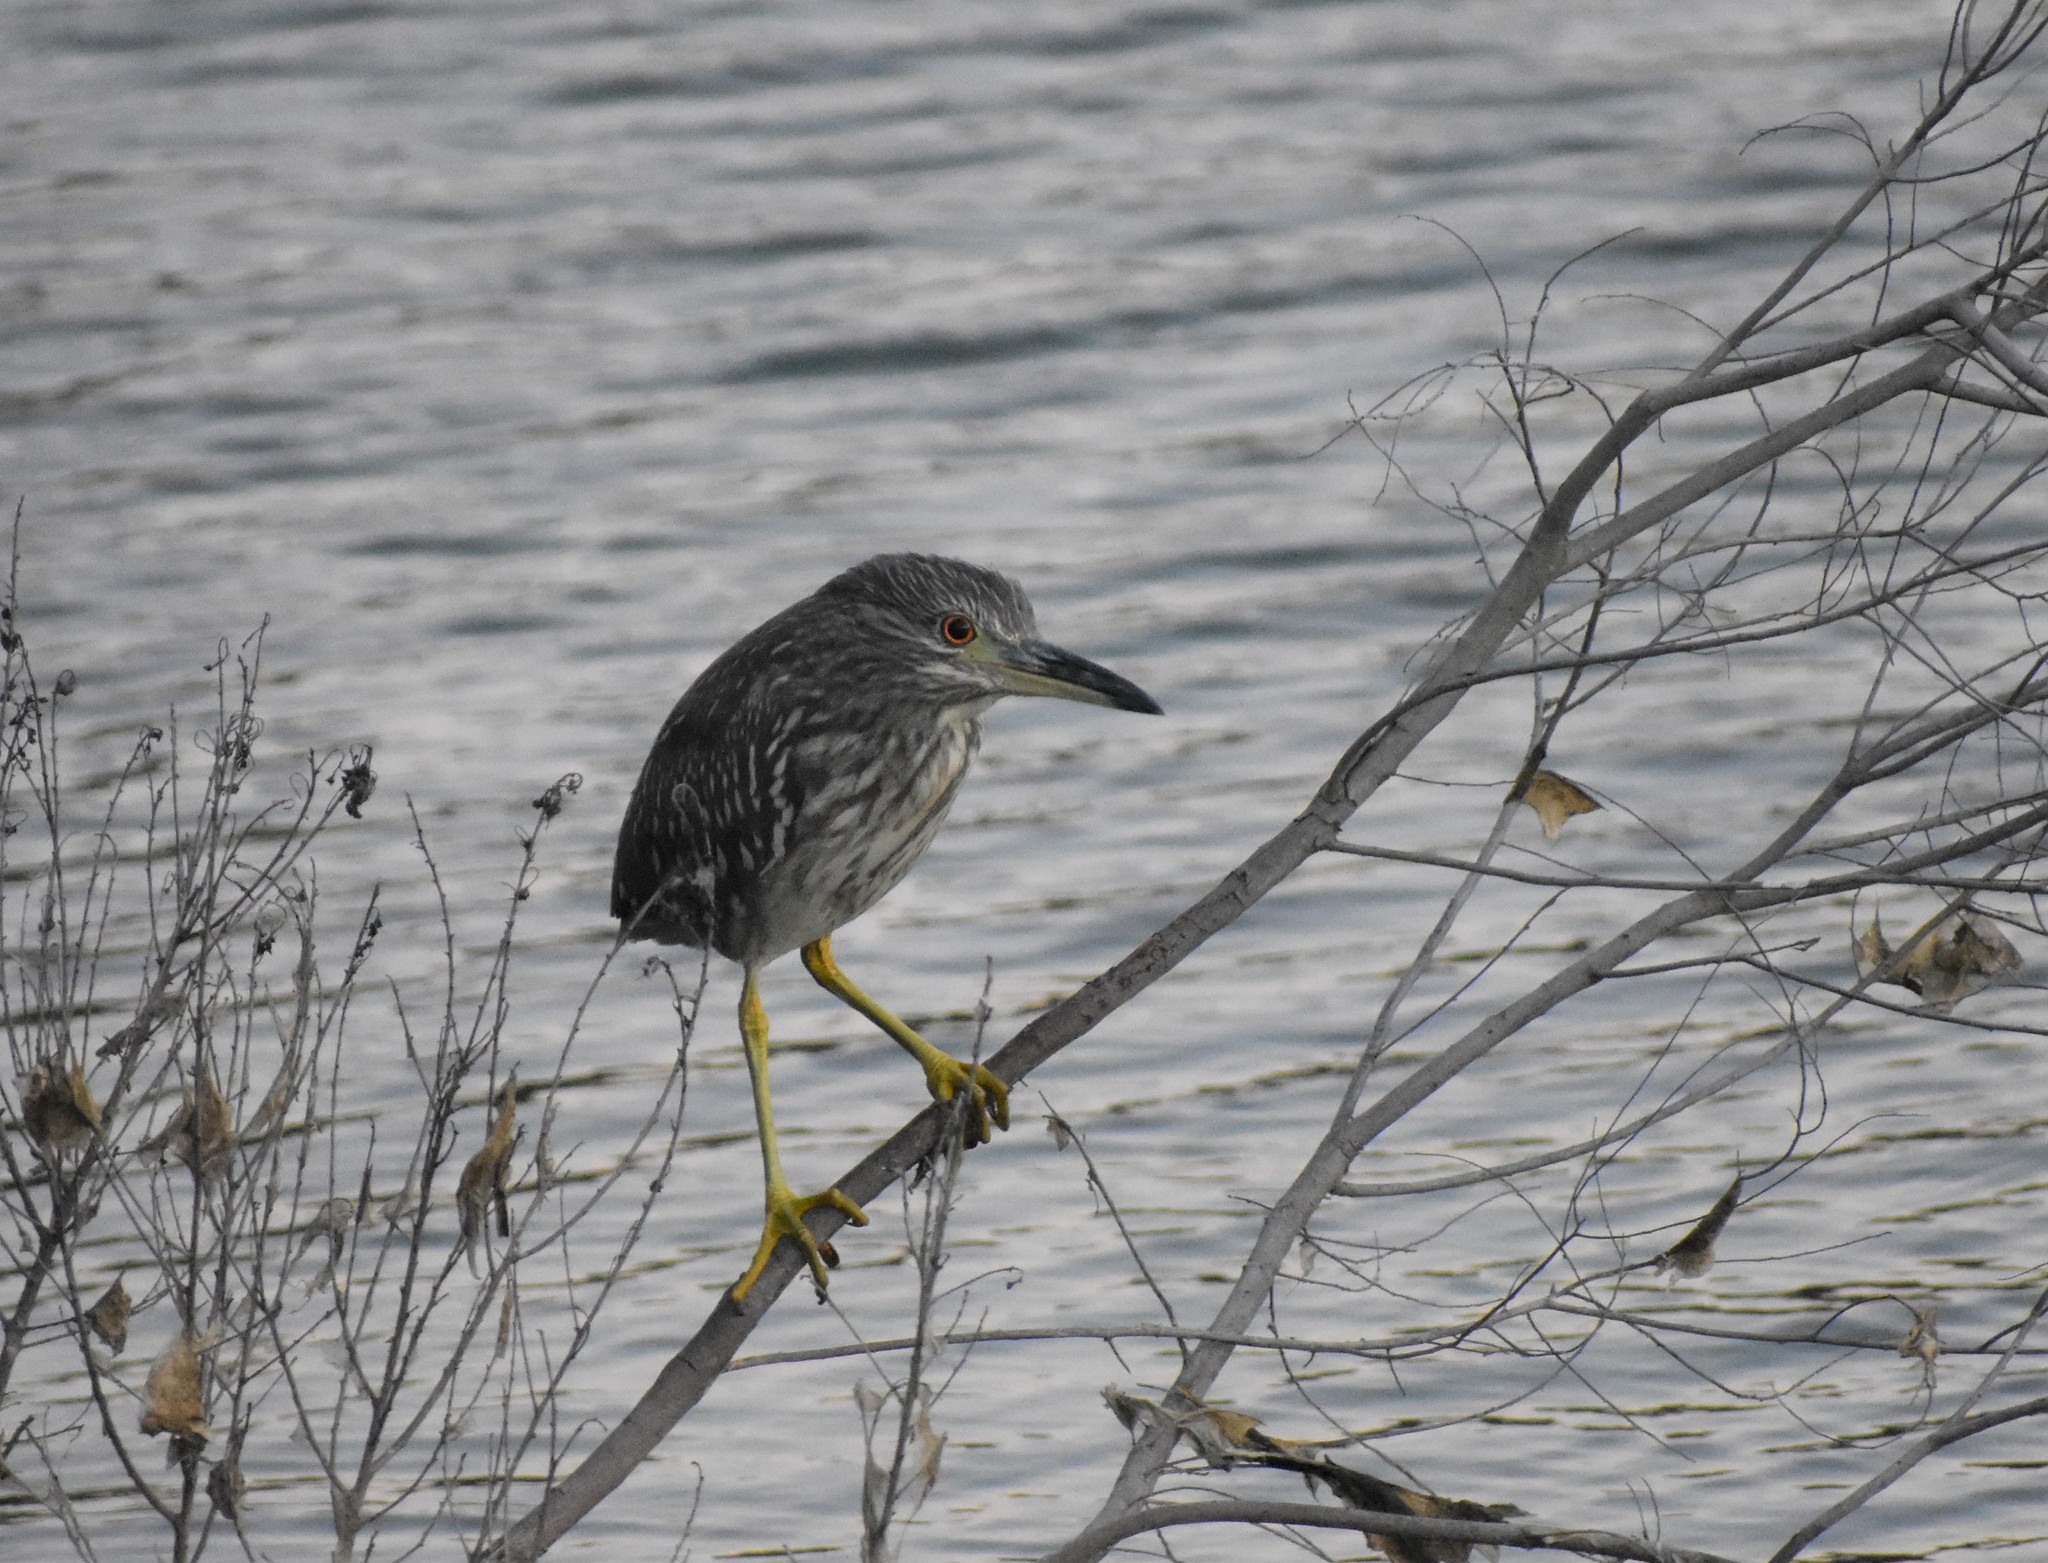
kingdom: Animalia
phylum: Chordata
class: Aves
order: Pelecaniformes
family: Ardeidae
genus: Nycticorax
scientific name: Nycticorax nycticorax
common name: Black-crowned night heron
